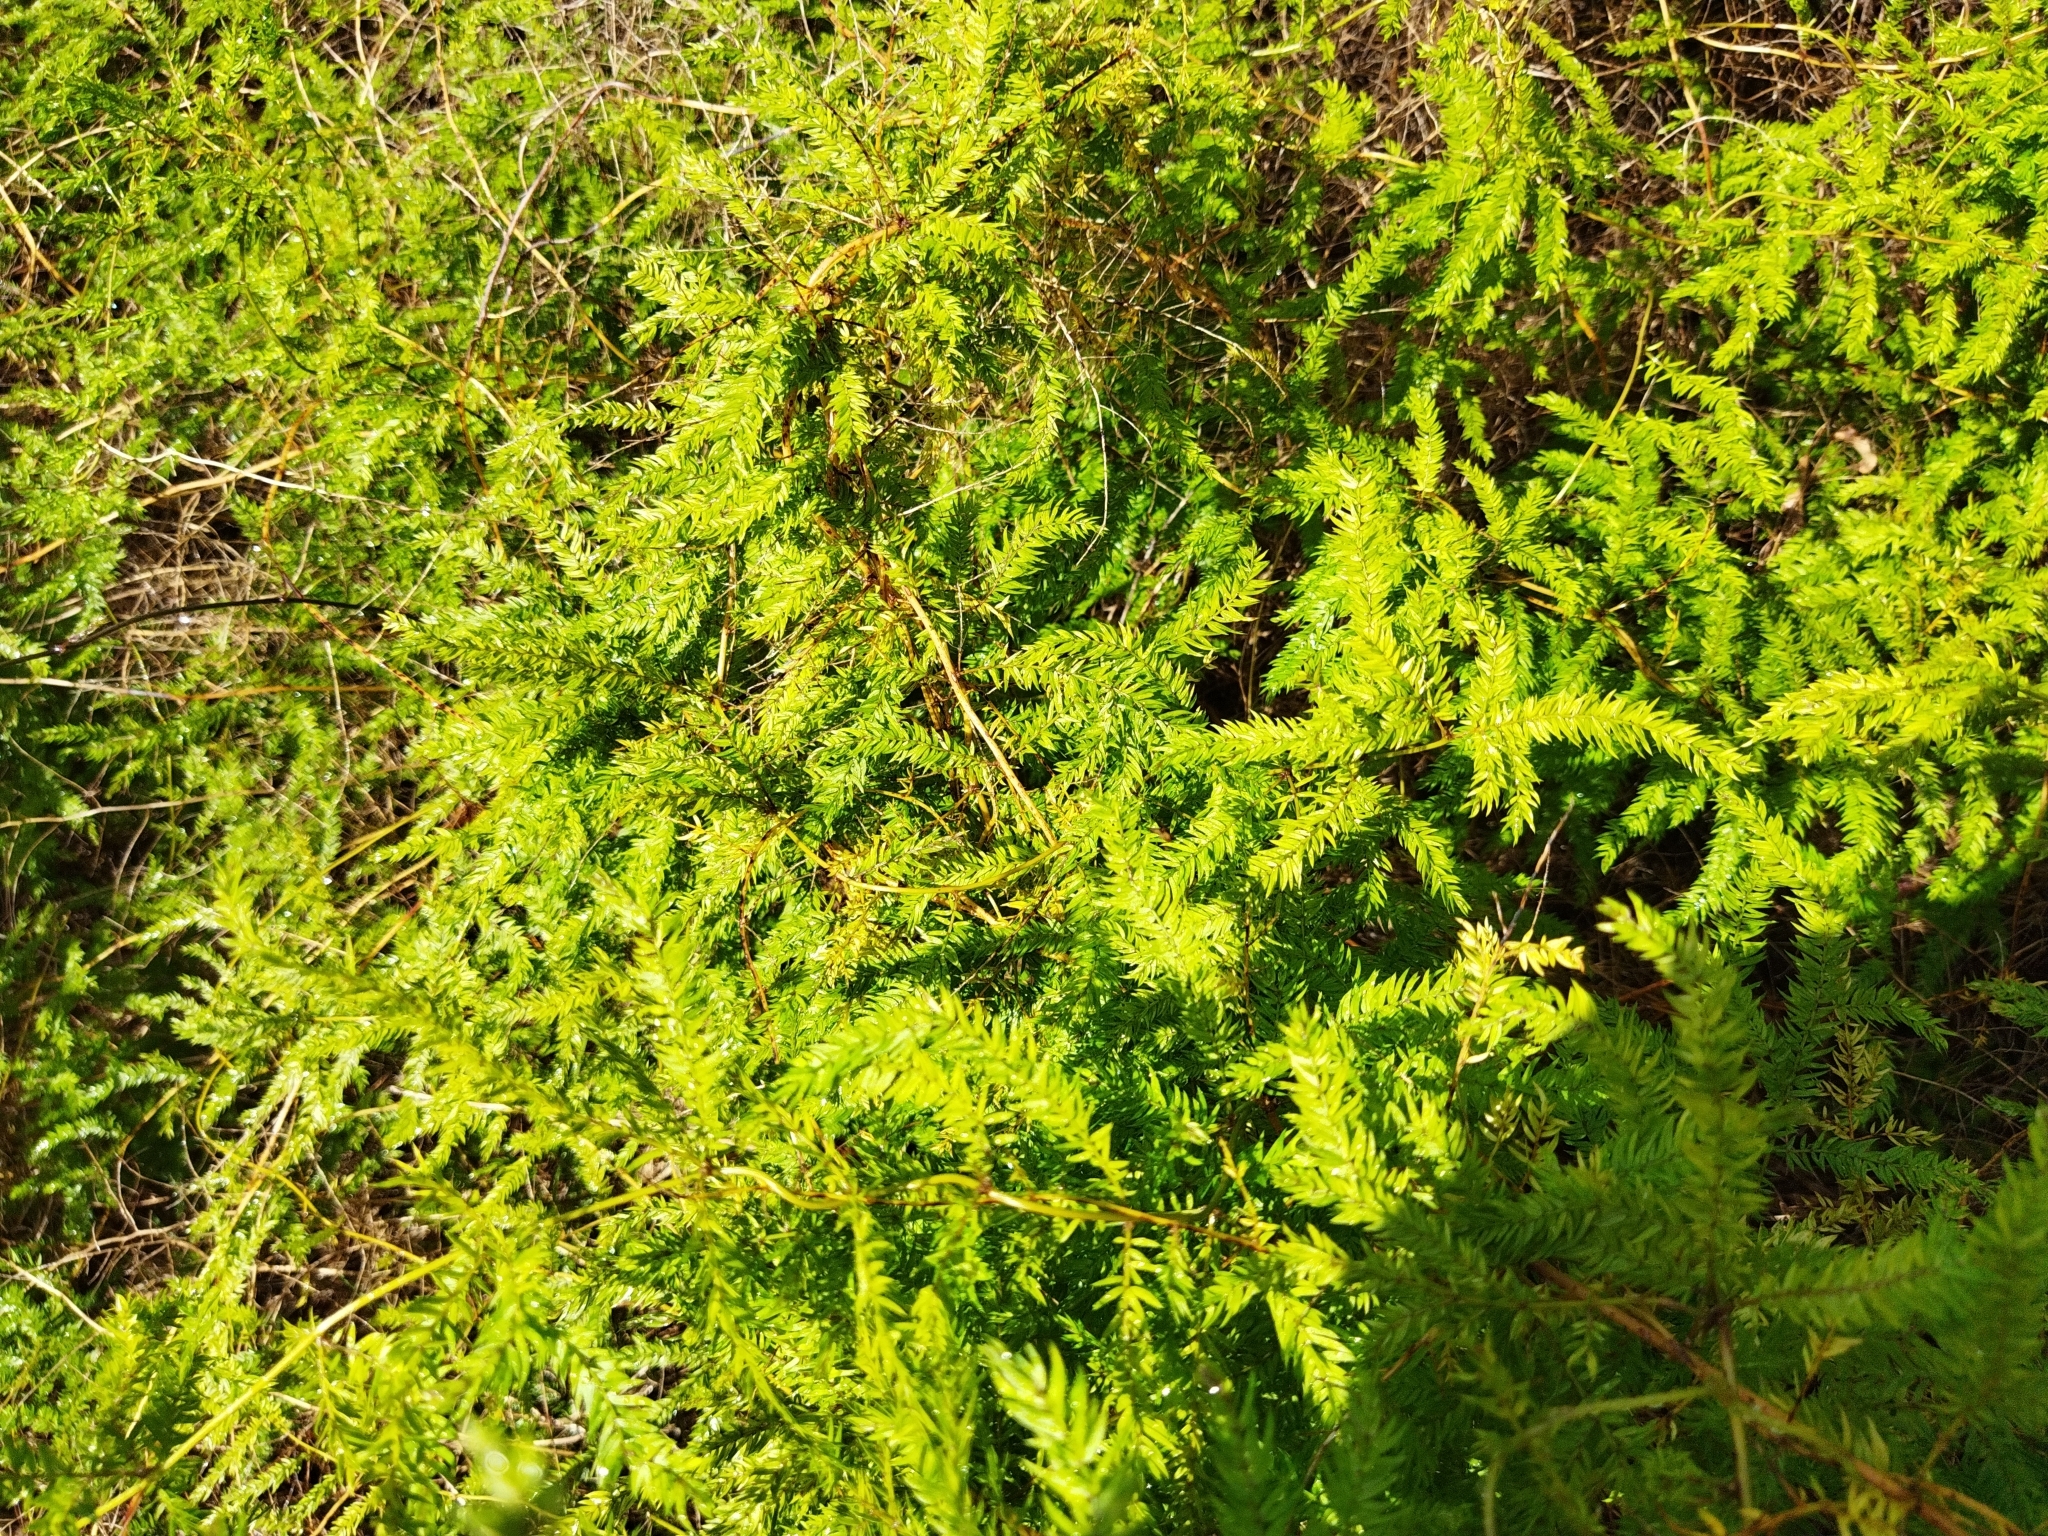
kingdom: Plantae
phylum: Tracheophyta
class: Liliopsida
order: Asparagales
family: Asparagaceae
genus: Asparagus
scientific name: Asparagus scandens
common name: Asparagus-fern
